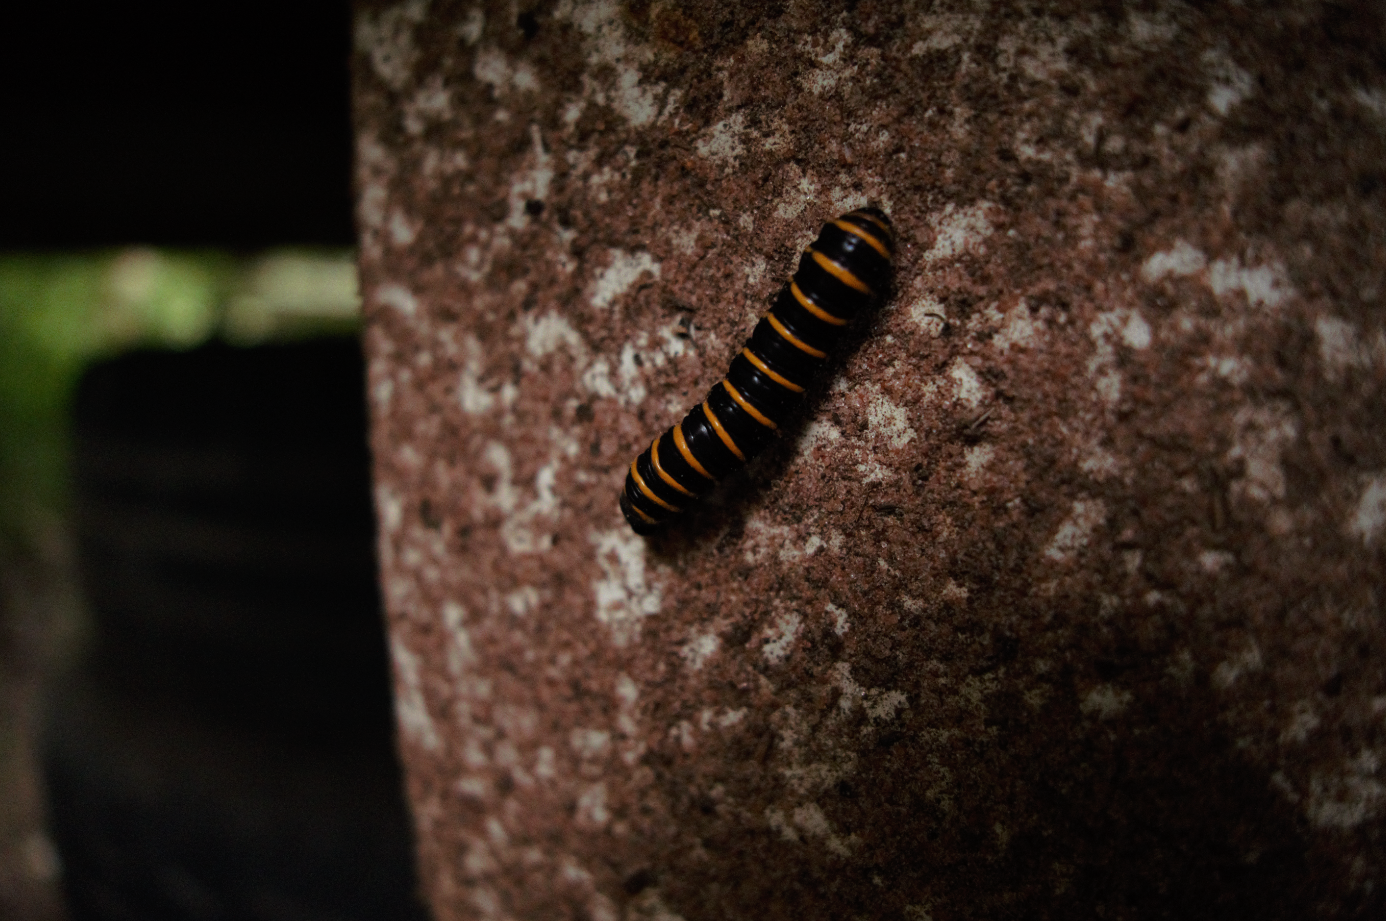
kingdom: Animalia
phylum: Arthropoda
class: Insecta
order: Lepidoptera
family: Nymphalidae
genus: Methona
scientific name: Methona themisto
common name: Themisto amberwing
